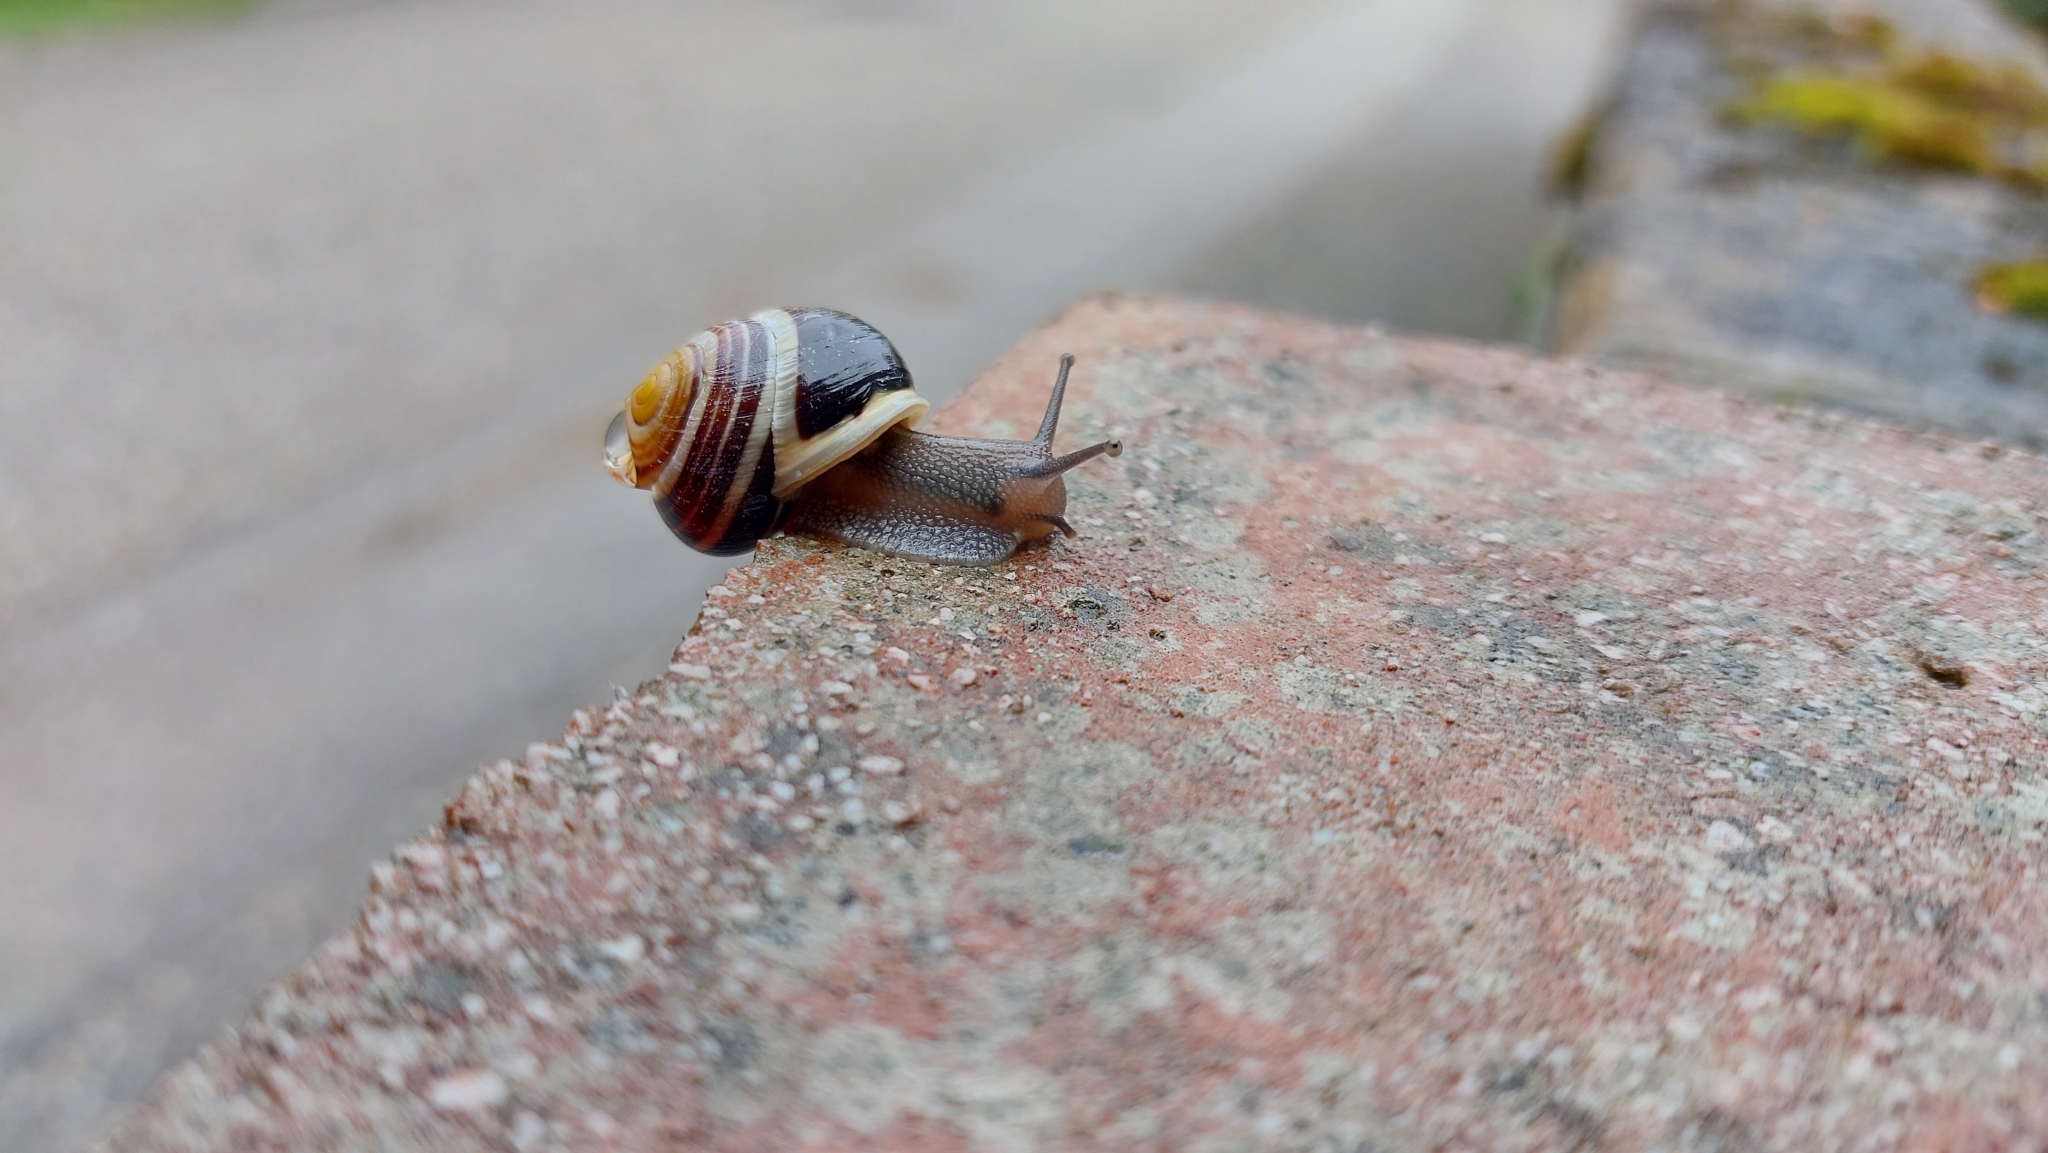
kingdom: Animalia
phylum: Mollusca
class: Gastropoda
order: Stylommatophora
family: Helicidae
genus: Cepaea
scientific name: Cepaea hortensis
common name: White-lip gardensnail
